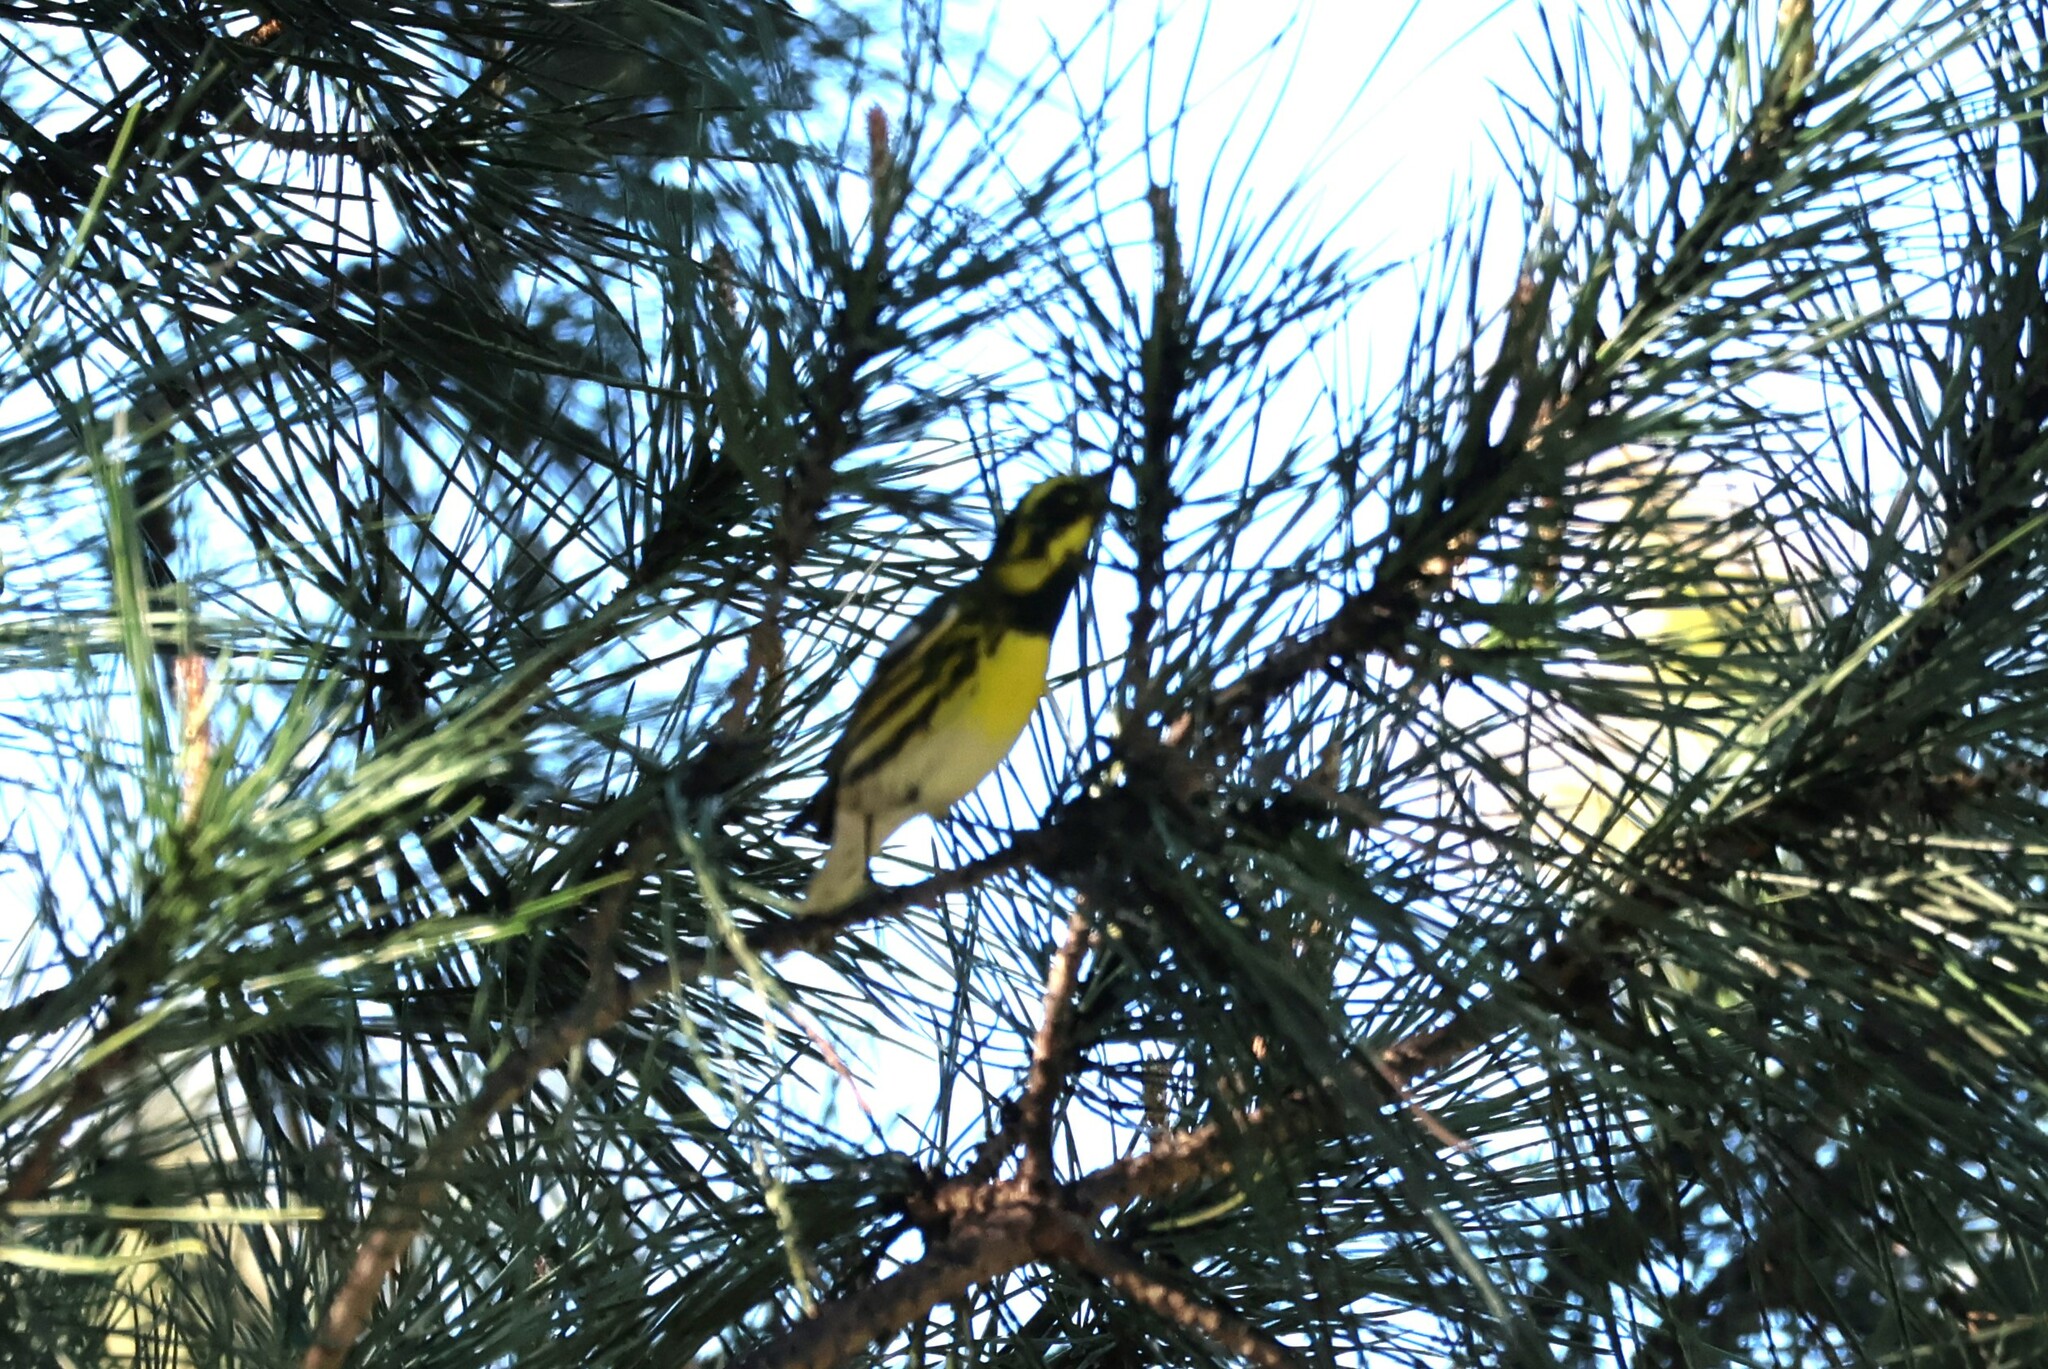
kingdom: Animalia
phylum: Chordata
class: Aves
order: Passeriformes
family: Parulidae
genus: Setophaga
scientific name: Setophaga townsendi
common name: Townsend's warbler
